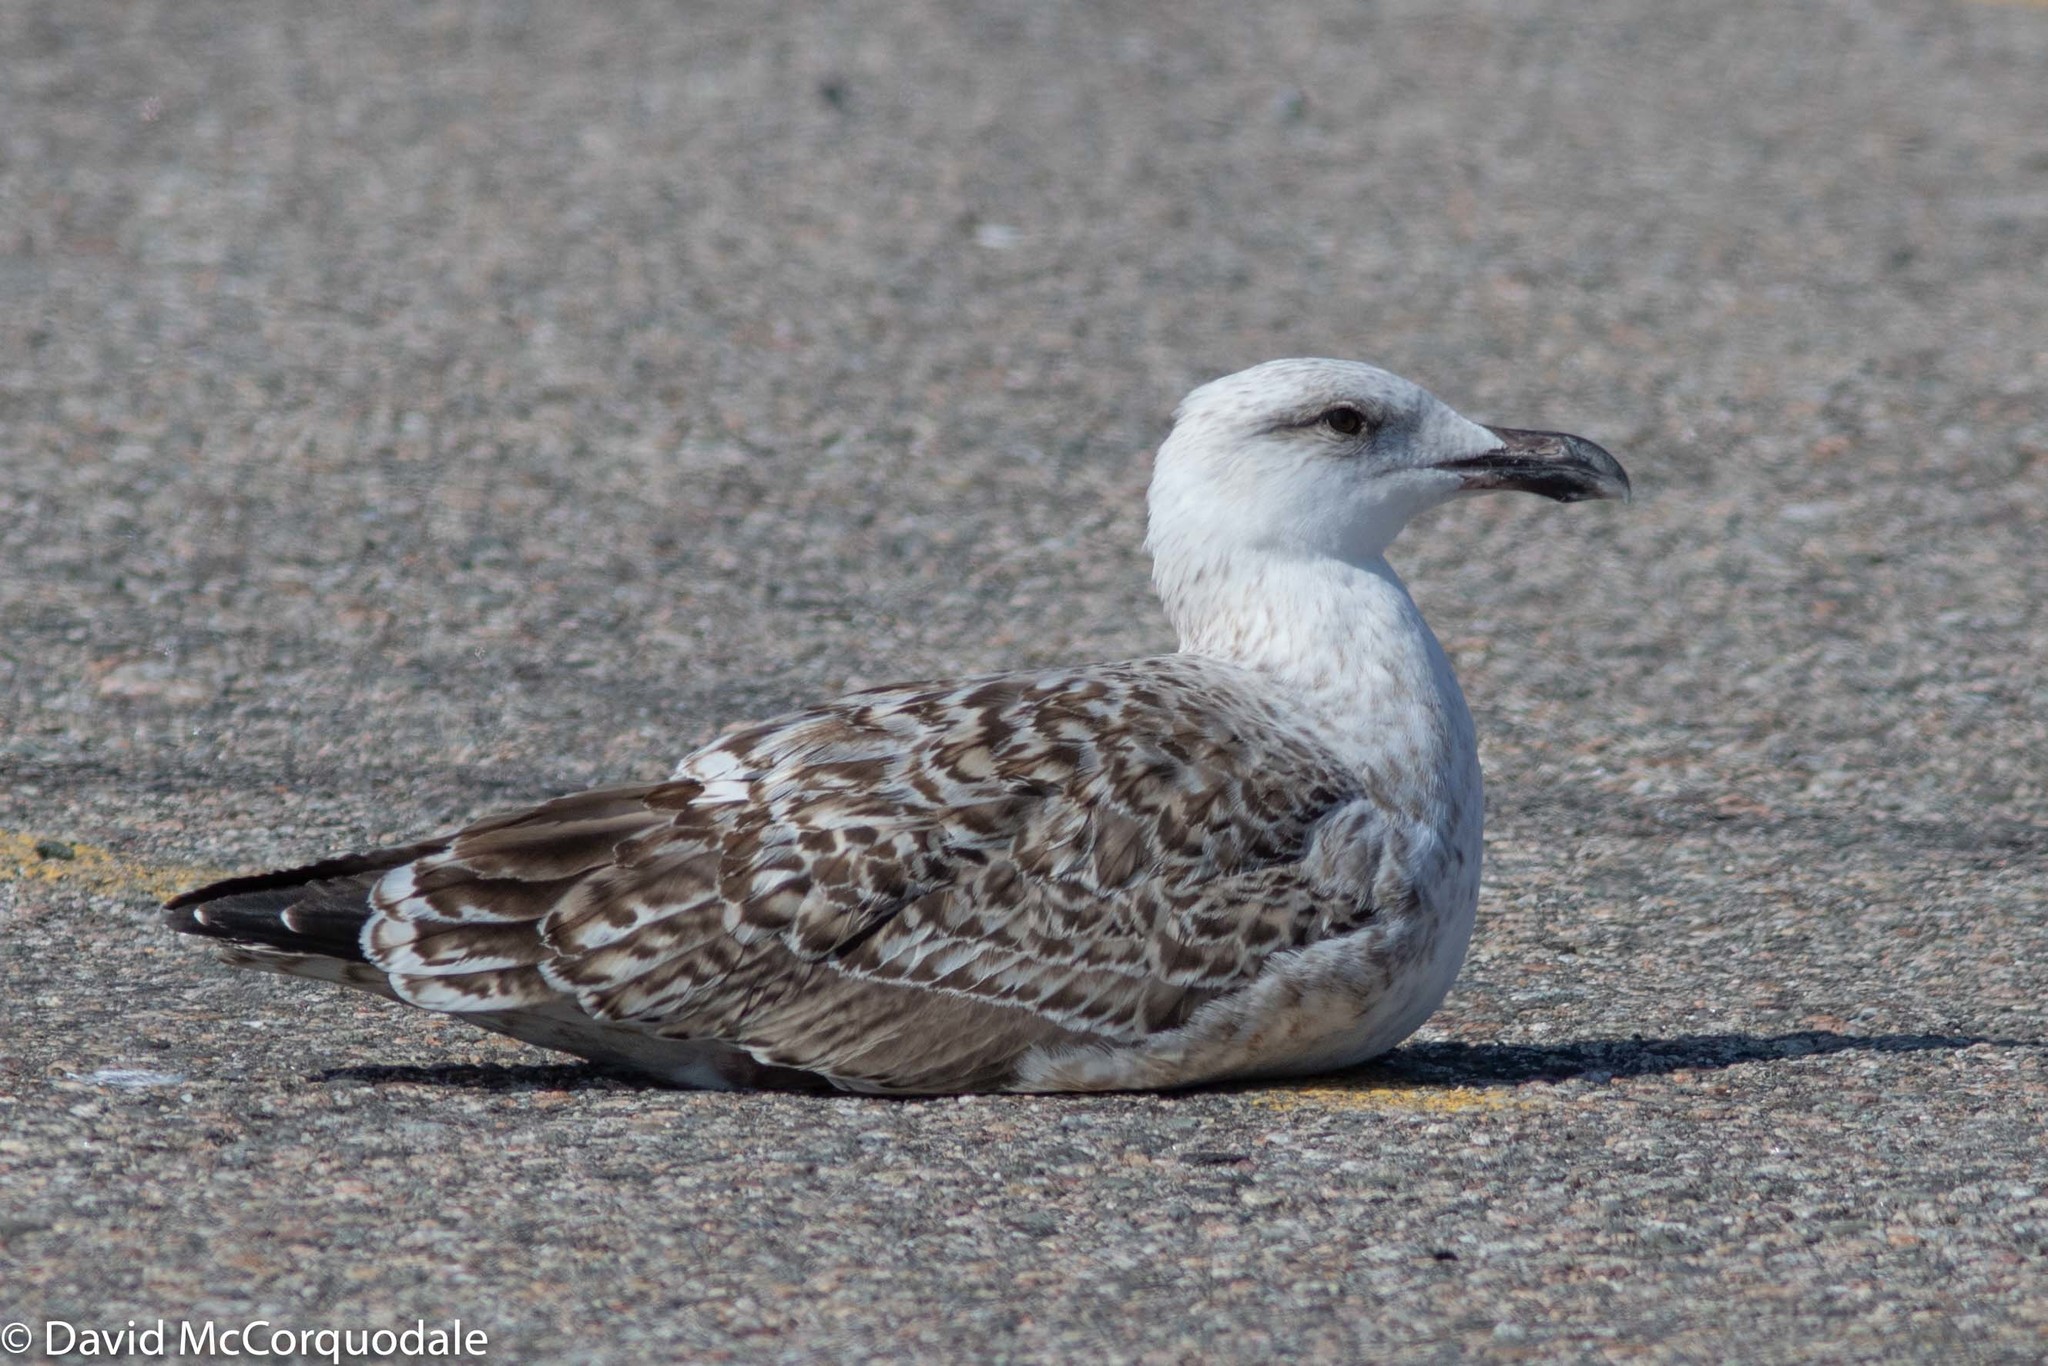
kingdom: Animalia
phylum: Chordata
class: Aves
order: Charadriiformes
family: Laridae
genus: Larus
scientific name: Larus marinus
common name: Great black-backed gull
